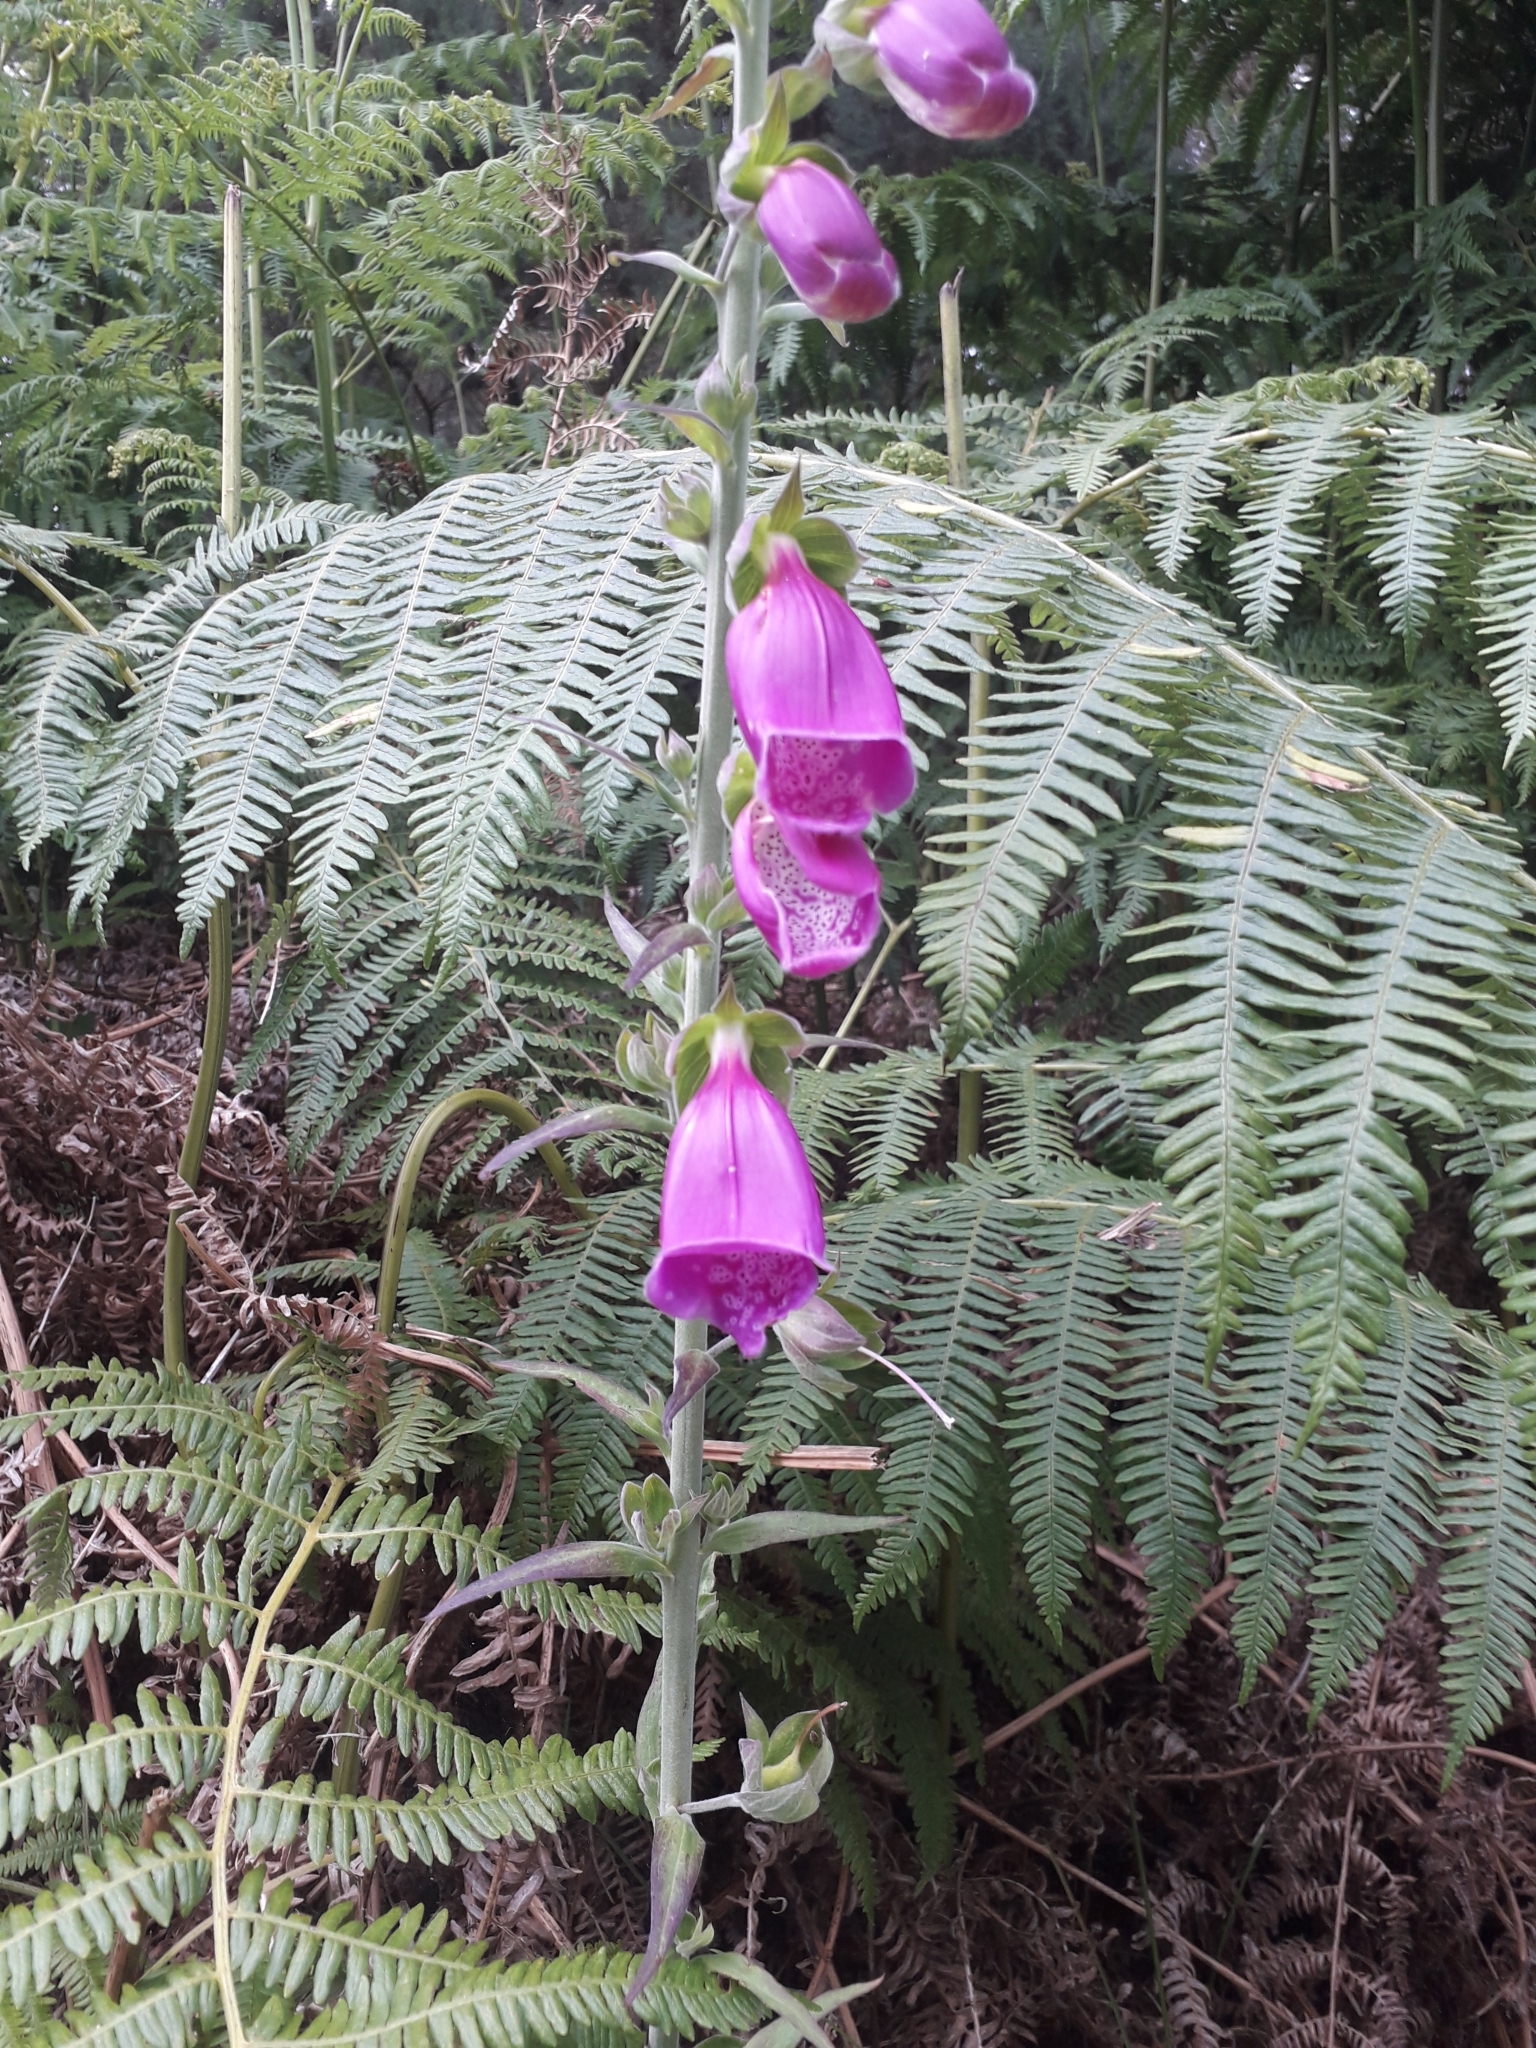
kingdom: Plantae
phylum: Tracheophyta
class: Magnoliopsida
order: Lamiales
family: Plantaginaceae
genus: Digitalis
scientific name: Digitalis purpurea
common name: Foxglove
